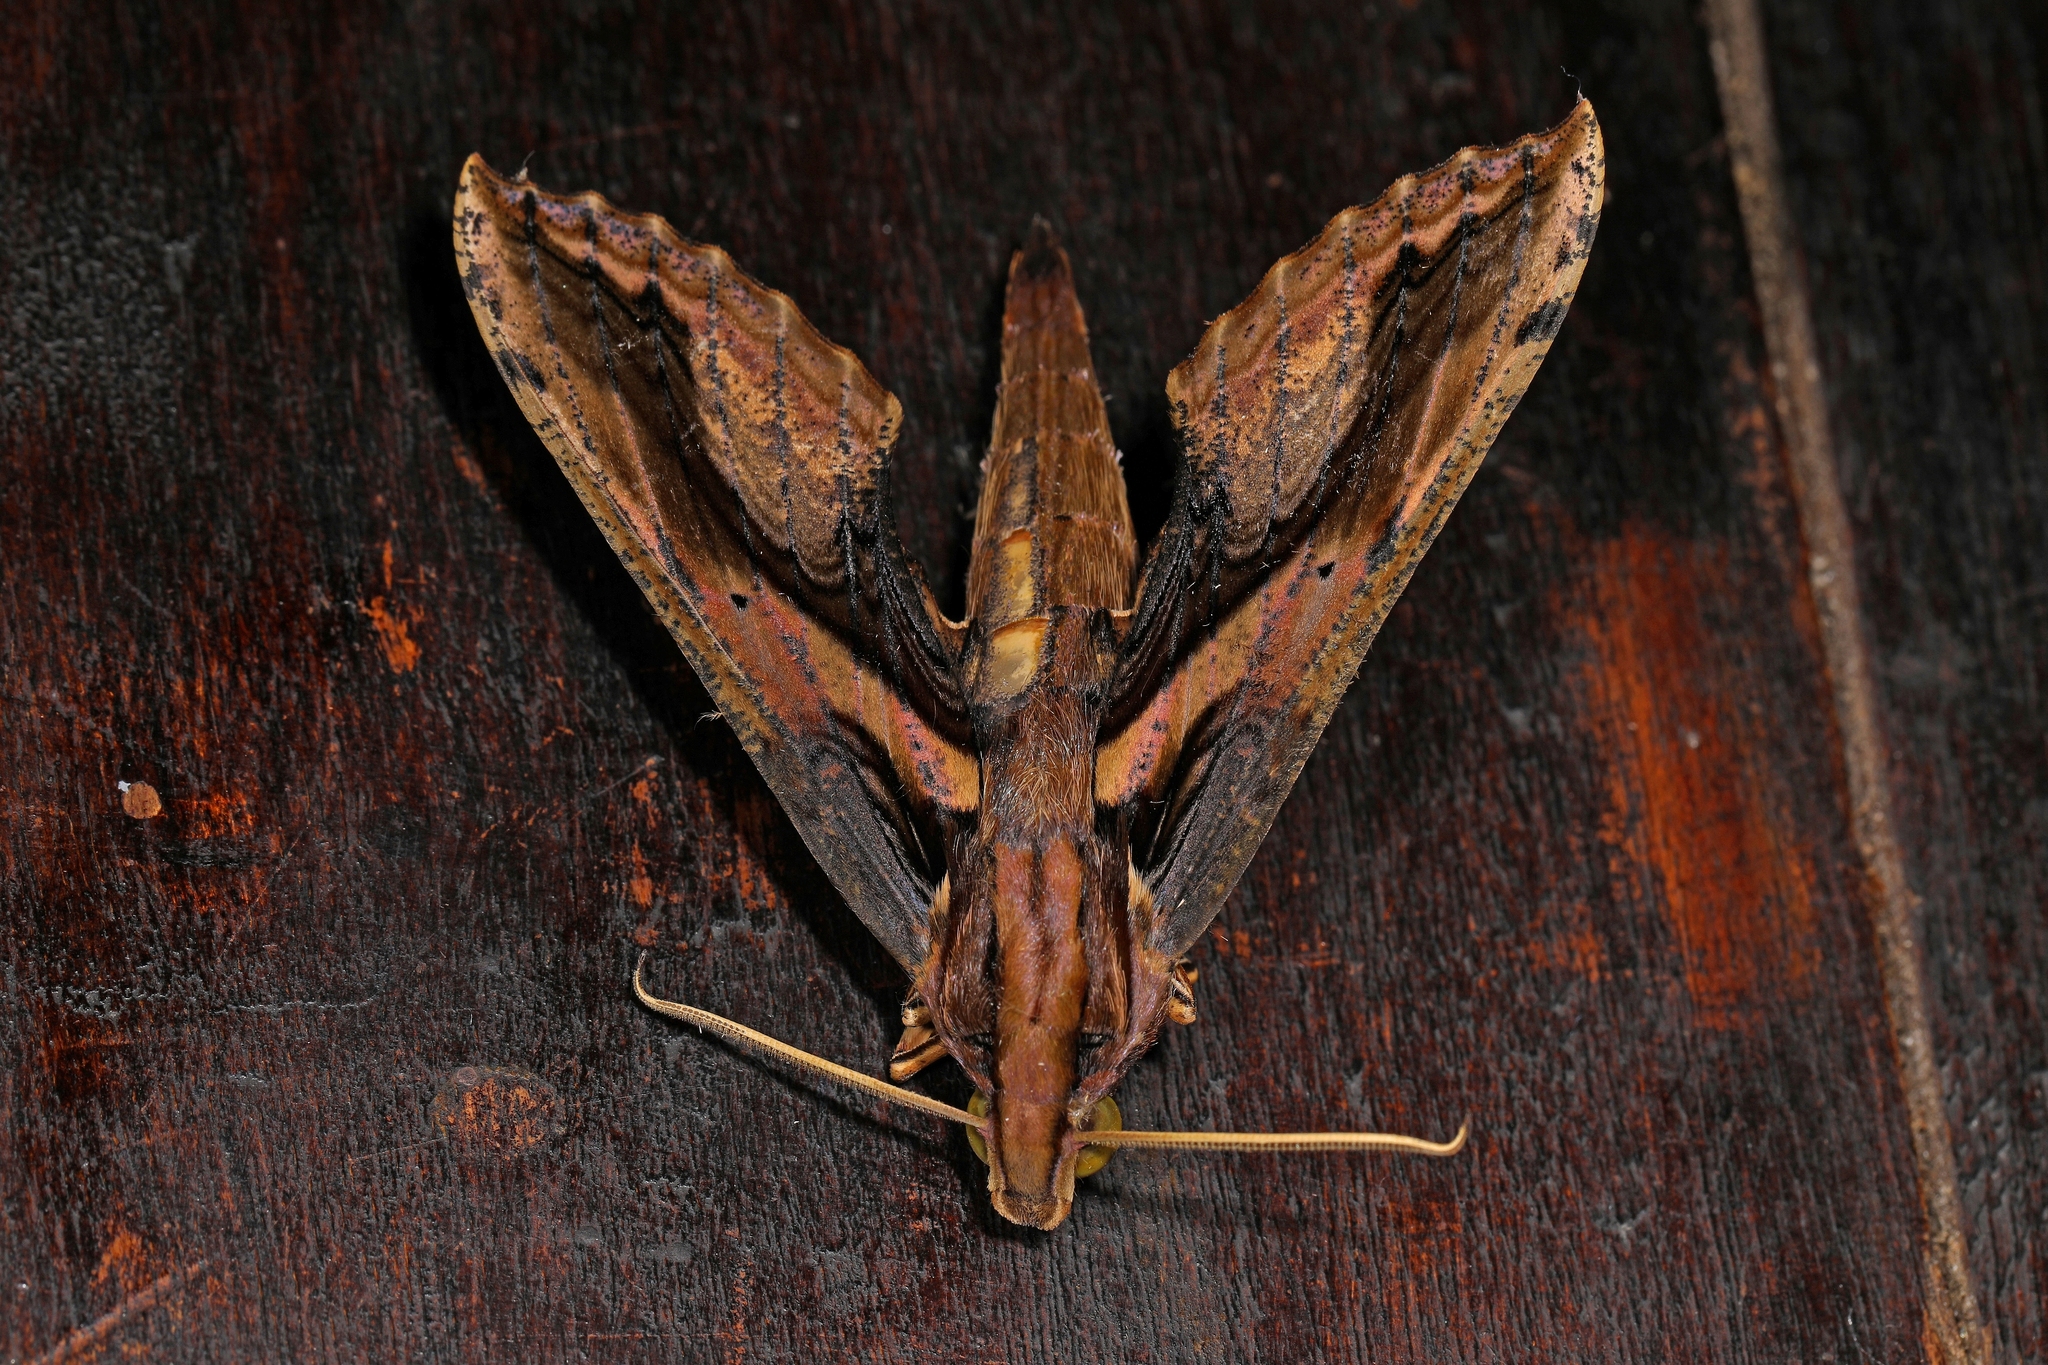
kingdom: Animalia
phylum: Arthropoda
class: Insecta
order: Lepidoptera
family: Sphingidae
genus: Xylophanes
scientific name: Xylophanes ceratomioides
